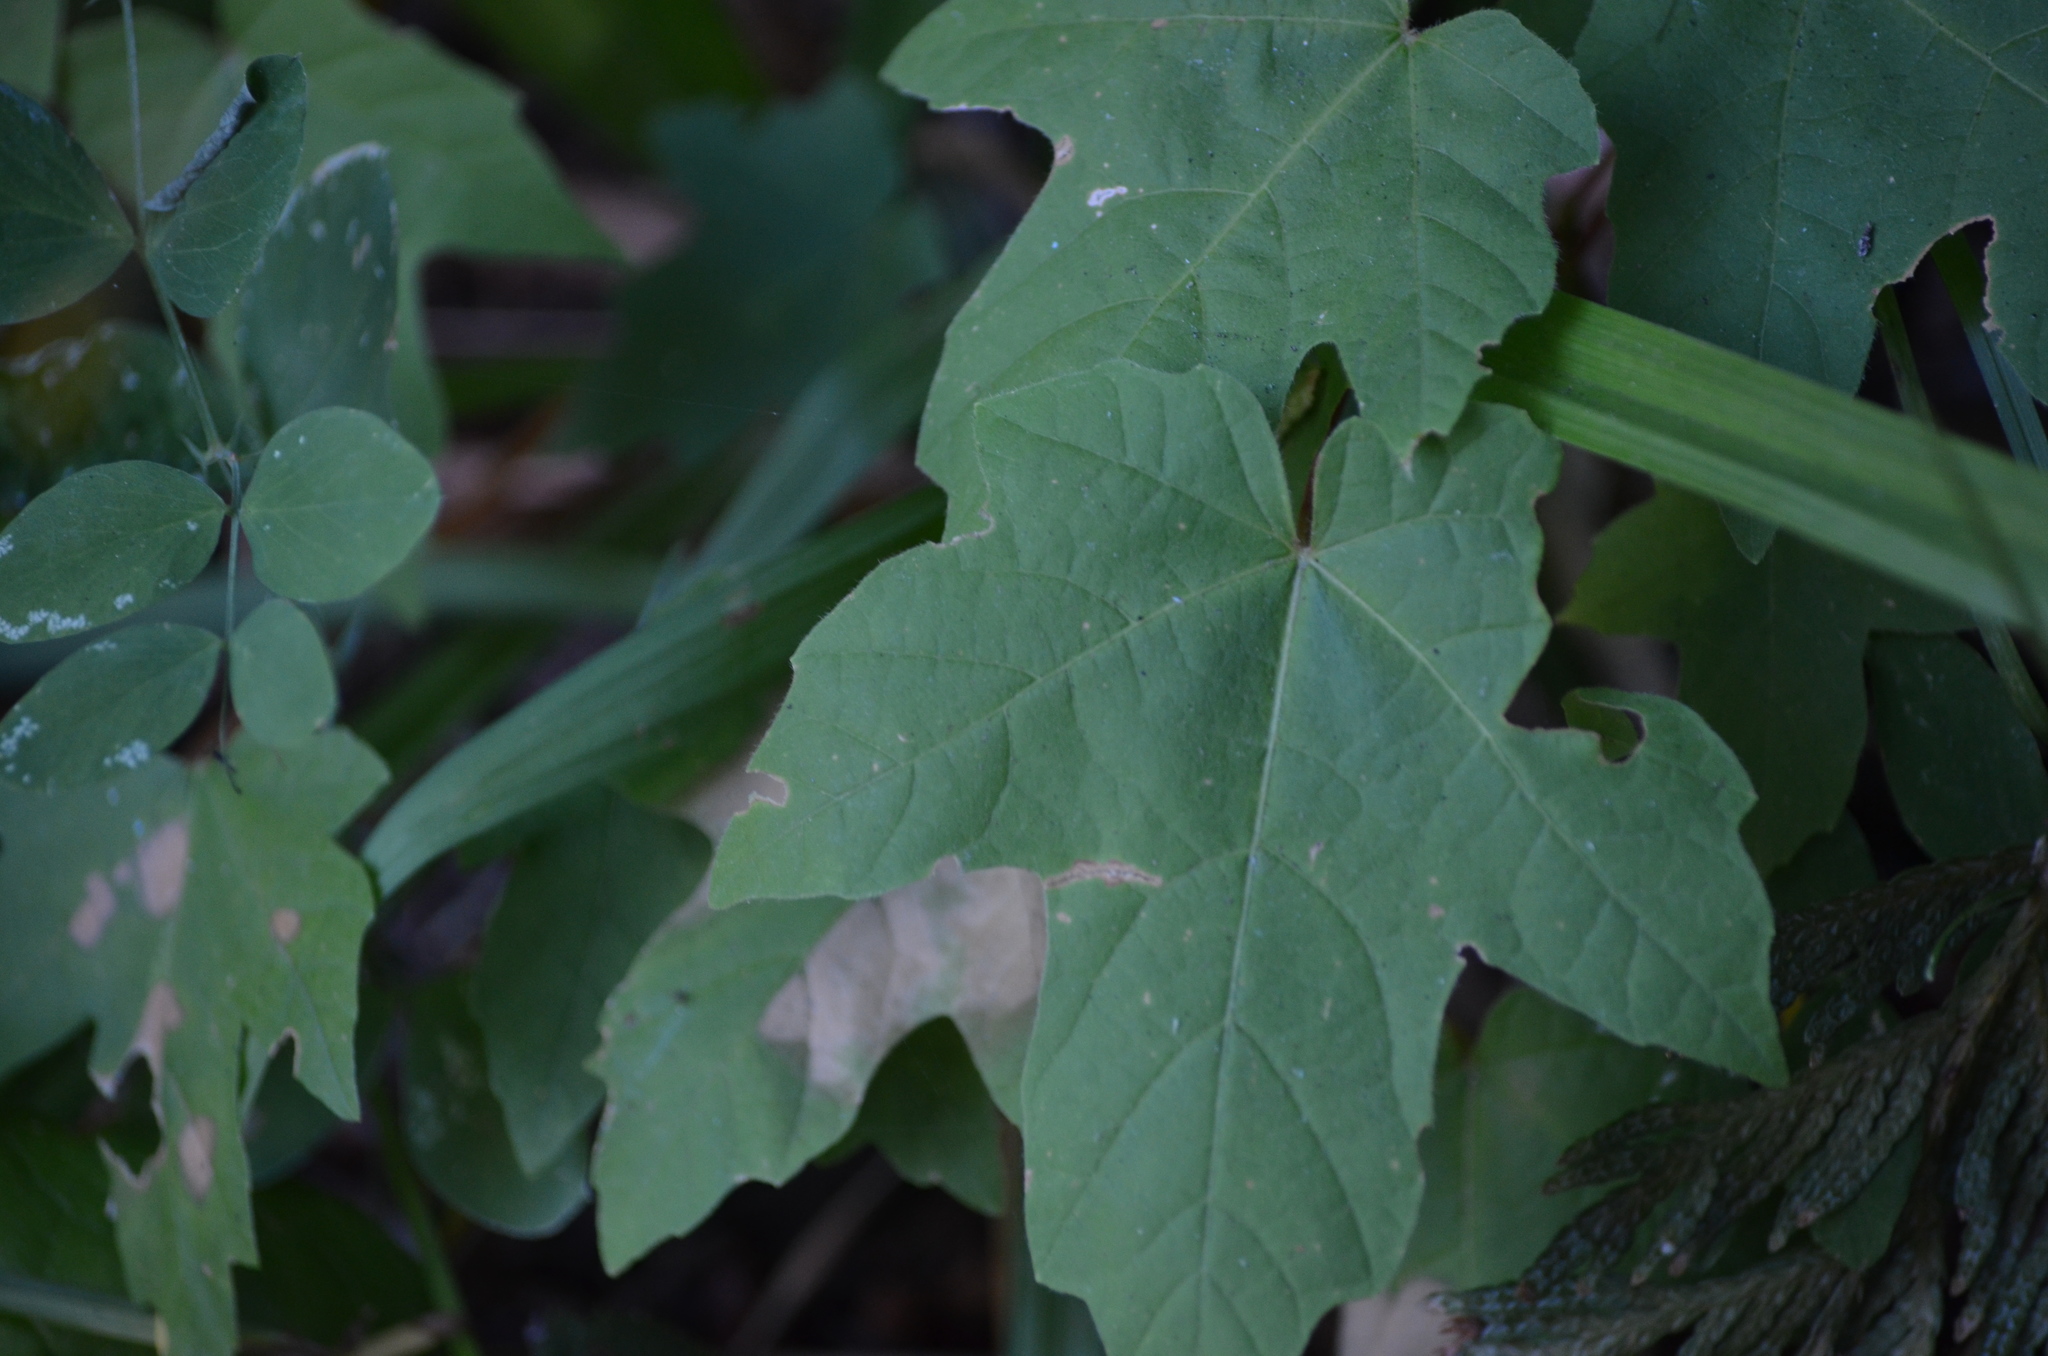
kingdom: Plantae
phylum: Tracheophyta
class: Magnoliopsida
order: Sapindales
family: Sapindaceae
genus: Acer
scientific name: Acer macrophyllum
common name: Oregon maple
